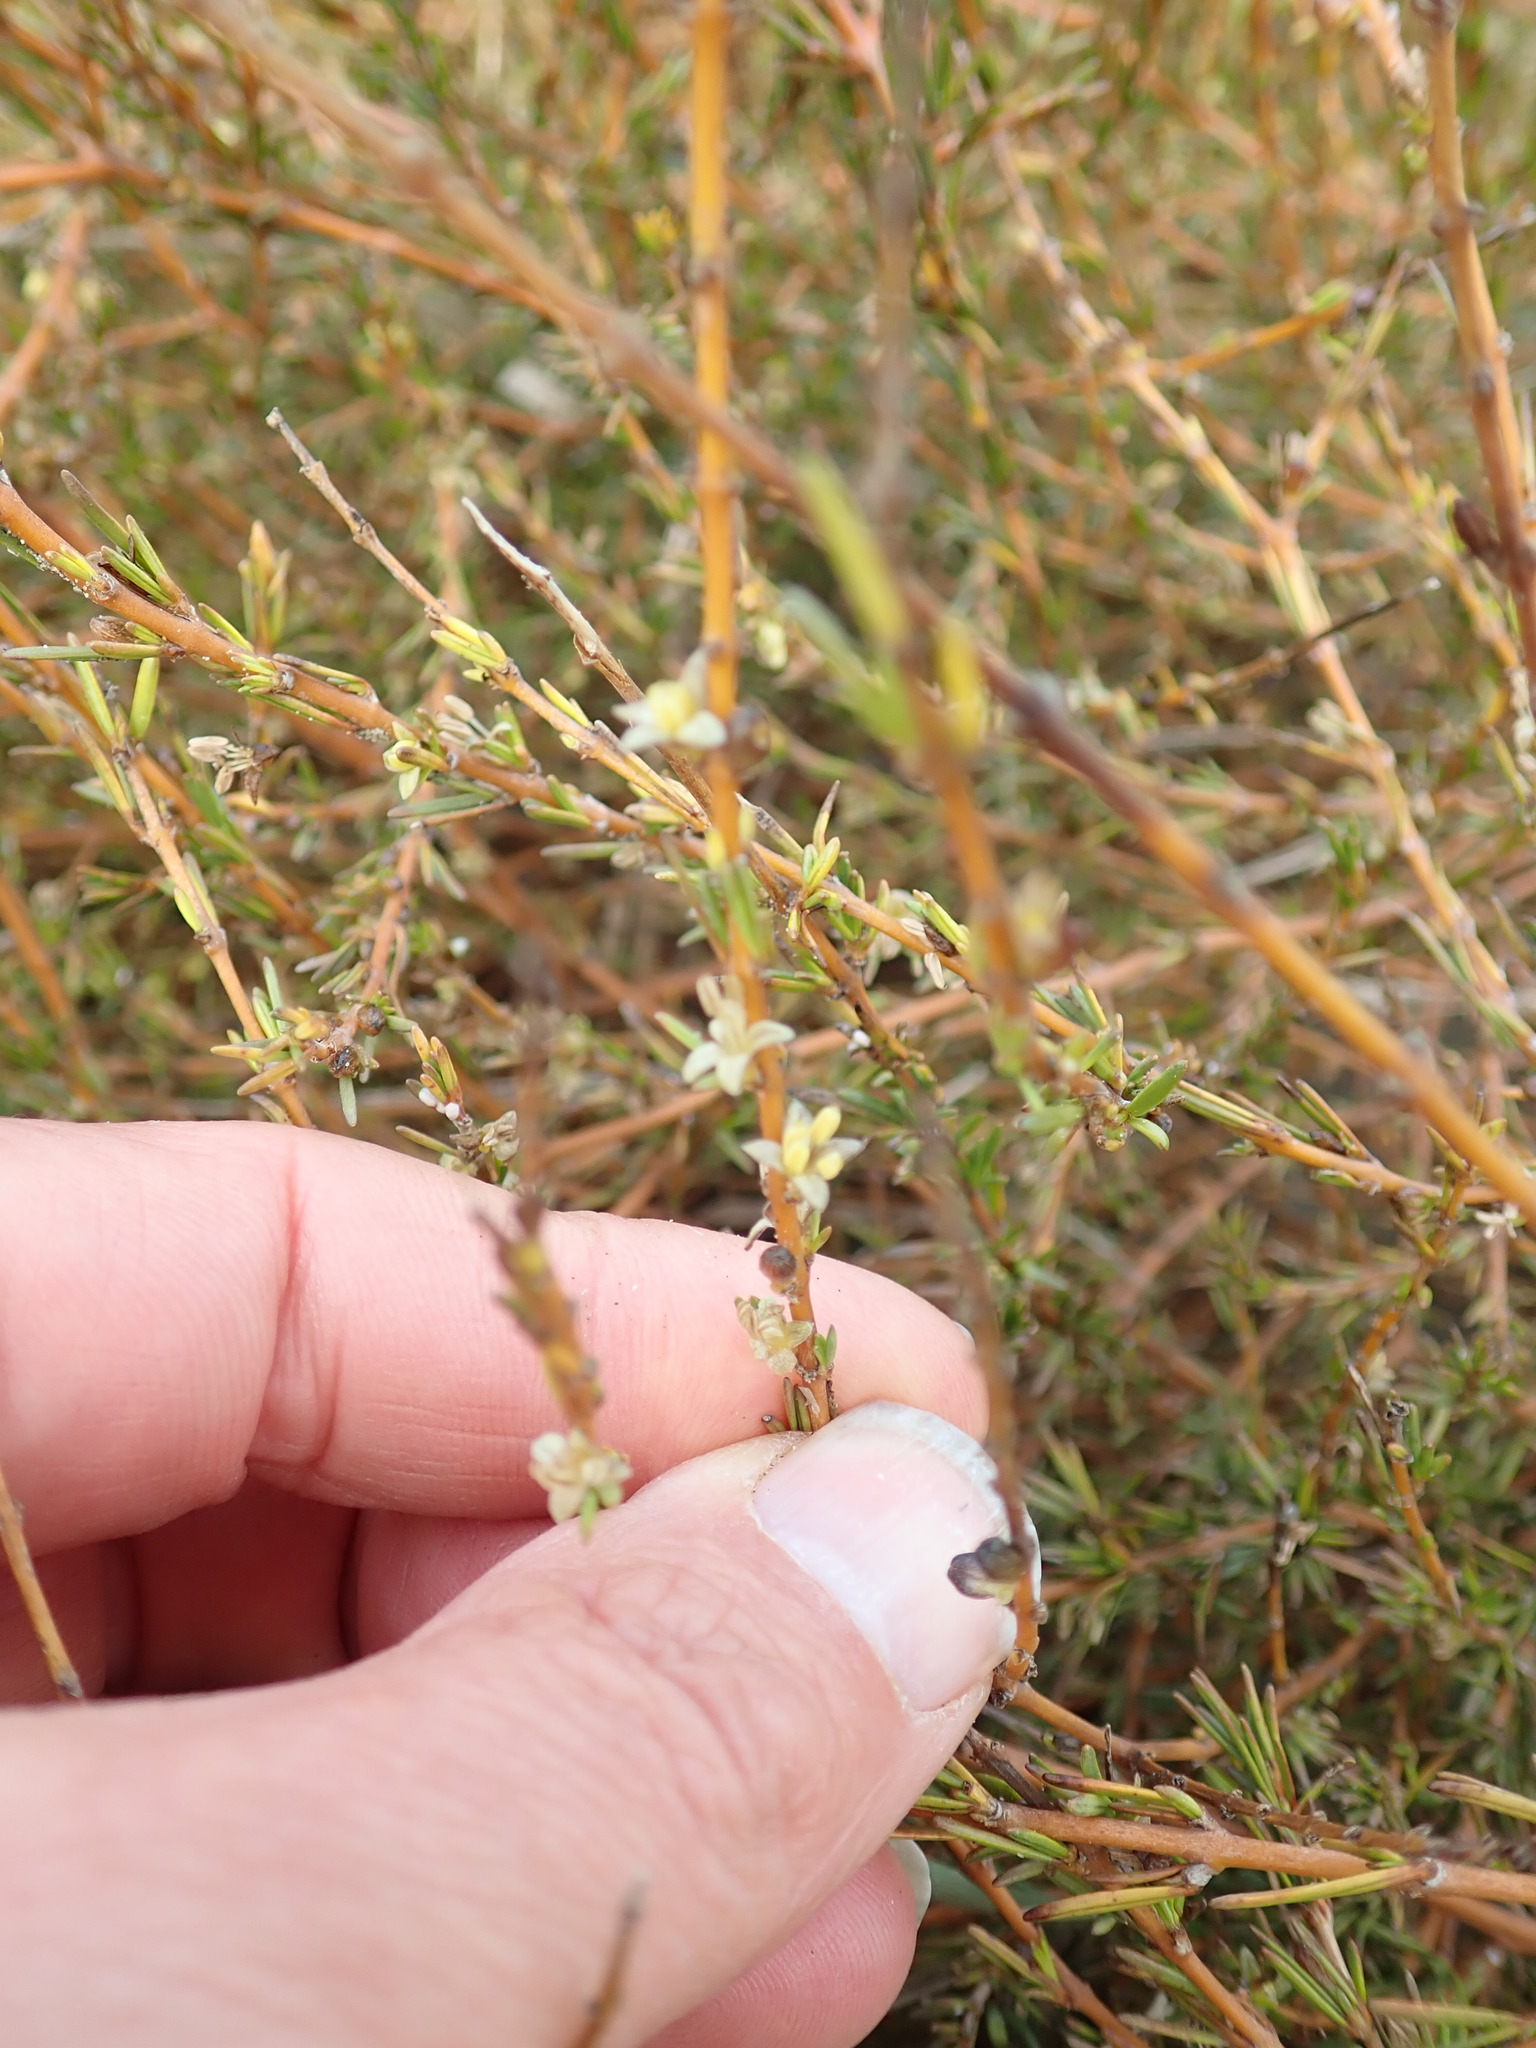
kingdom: Plantae
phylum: Tracheophyta
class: Magnoliopsida
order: Gentianales
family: Rubiaceae
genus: Coprosma
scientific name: Coprosma acerosa
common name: Sand coprosma
